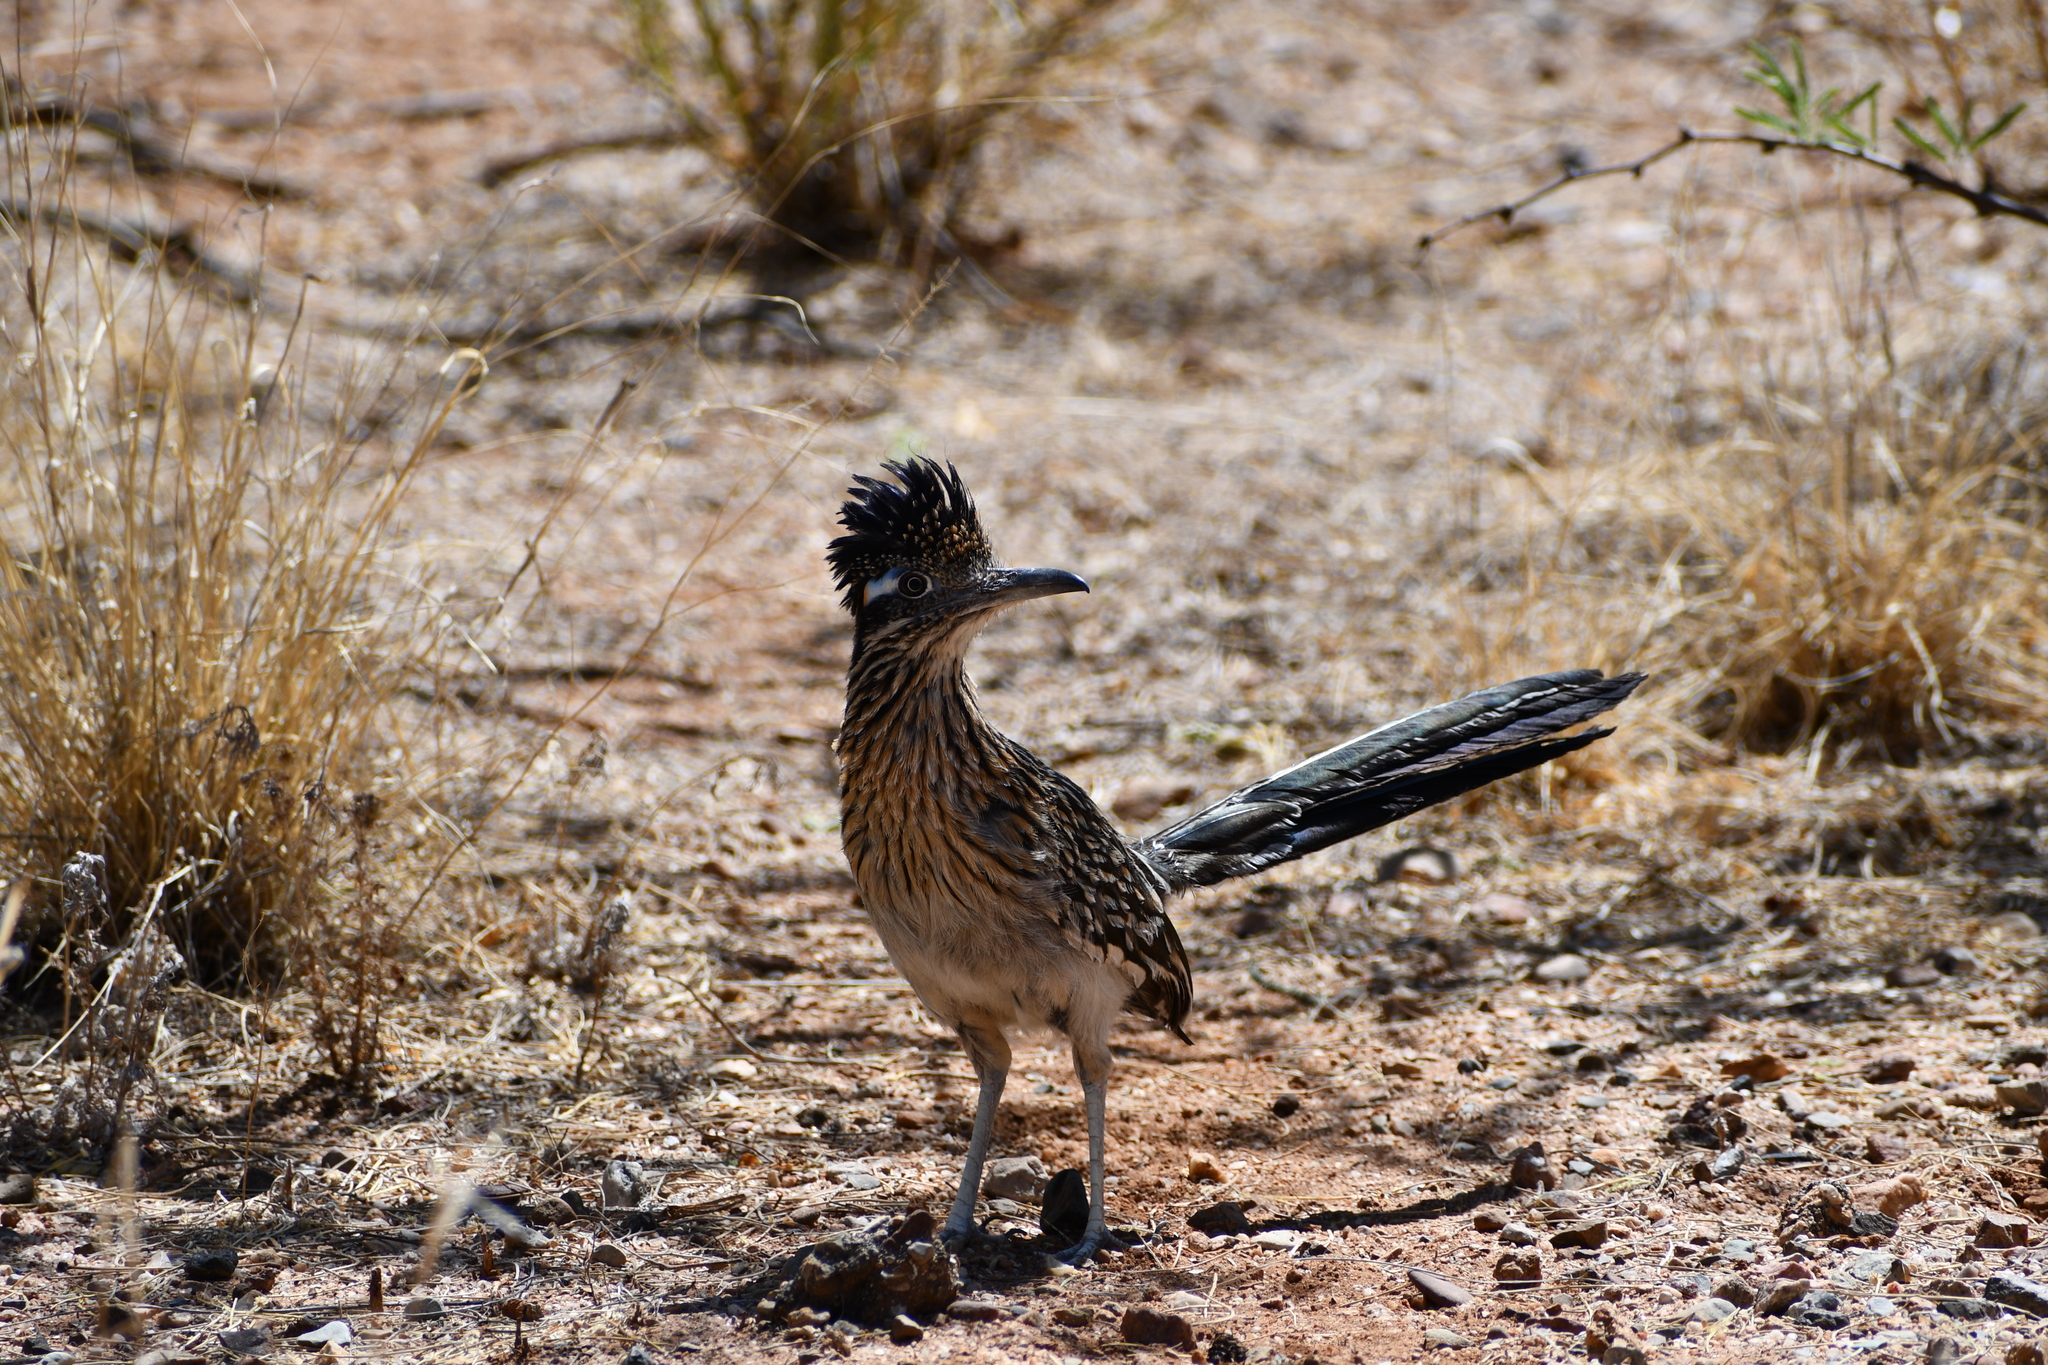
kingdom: Animalia
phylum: Chordata
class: Aves
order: Cuculiformes
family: Cuculidae
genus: Geococcyx
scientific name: Geococcyx californianus
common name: Greater roadrunner
